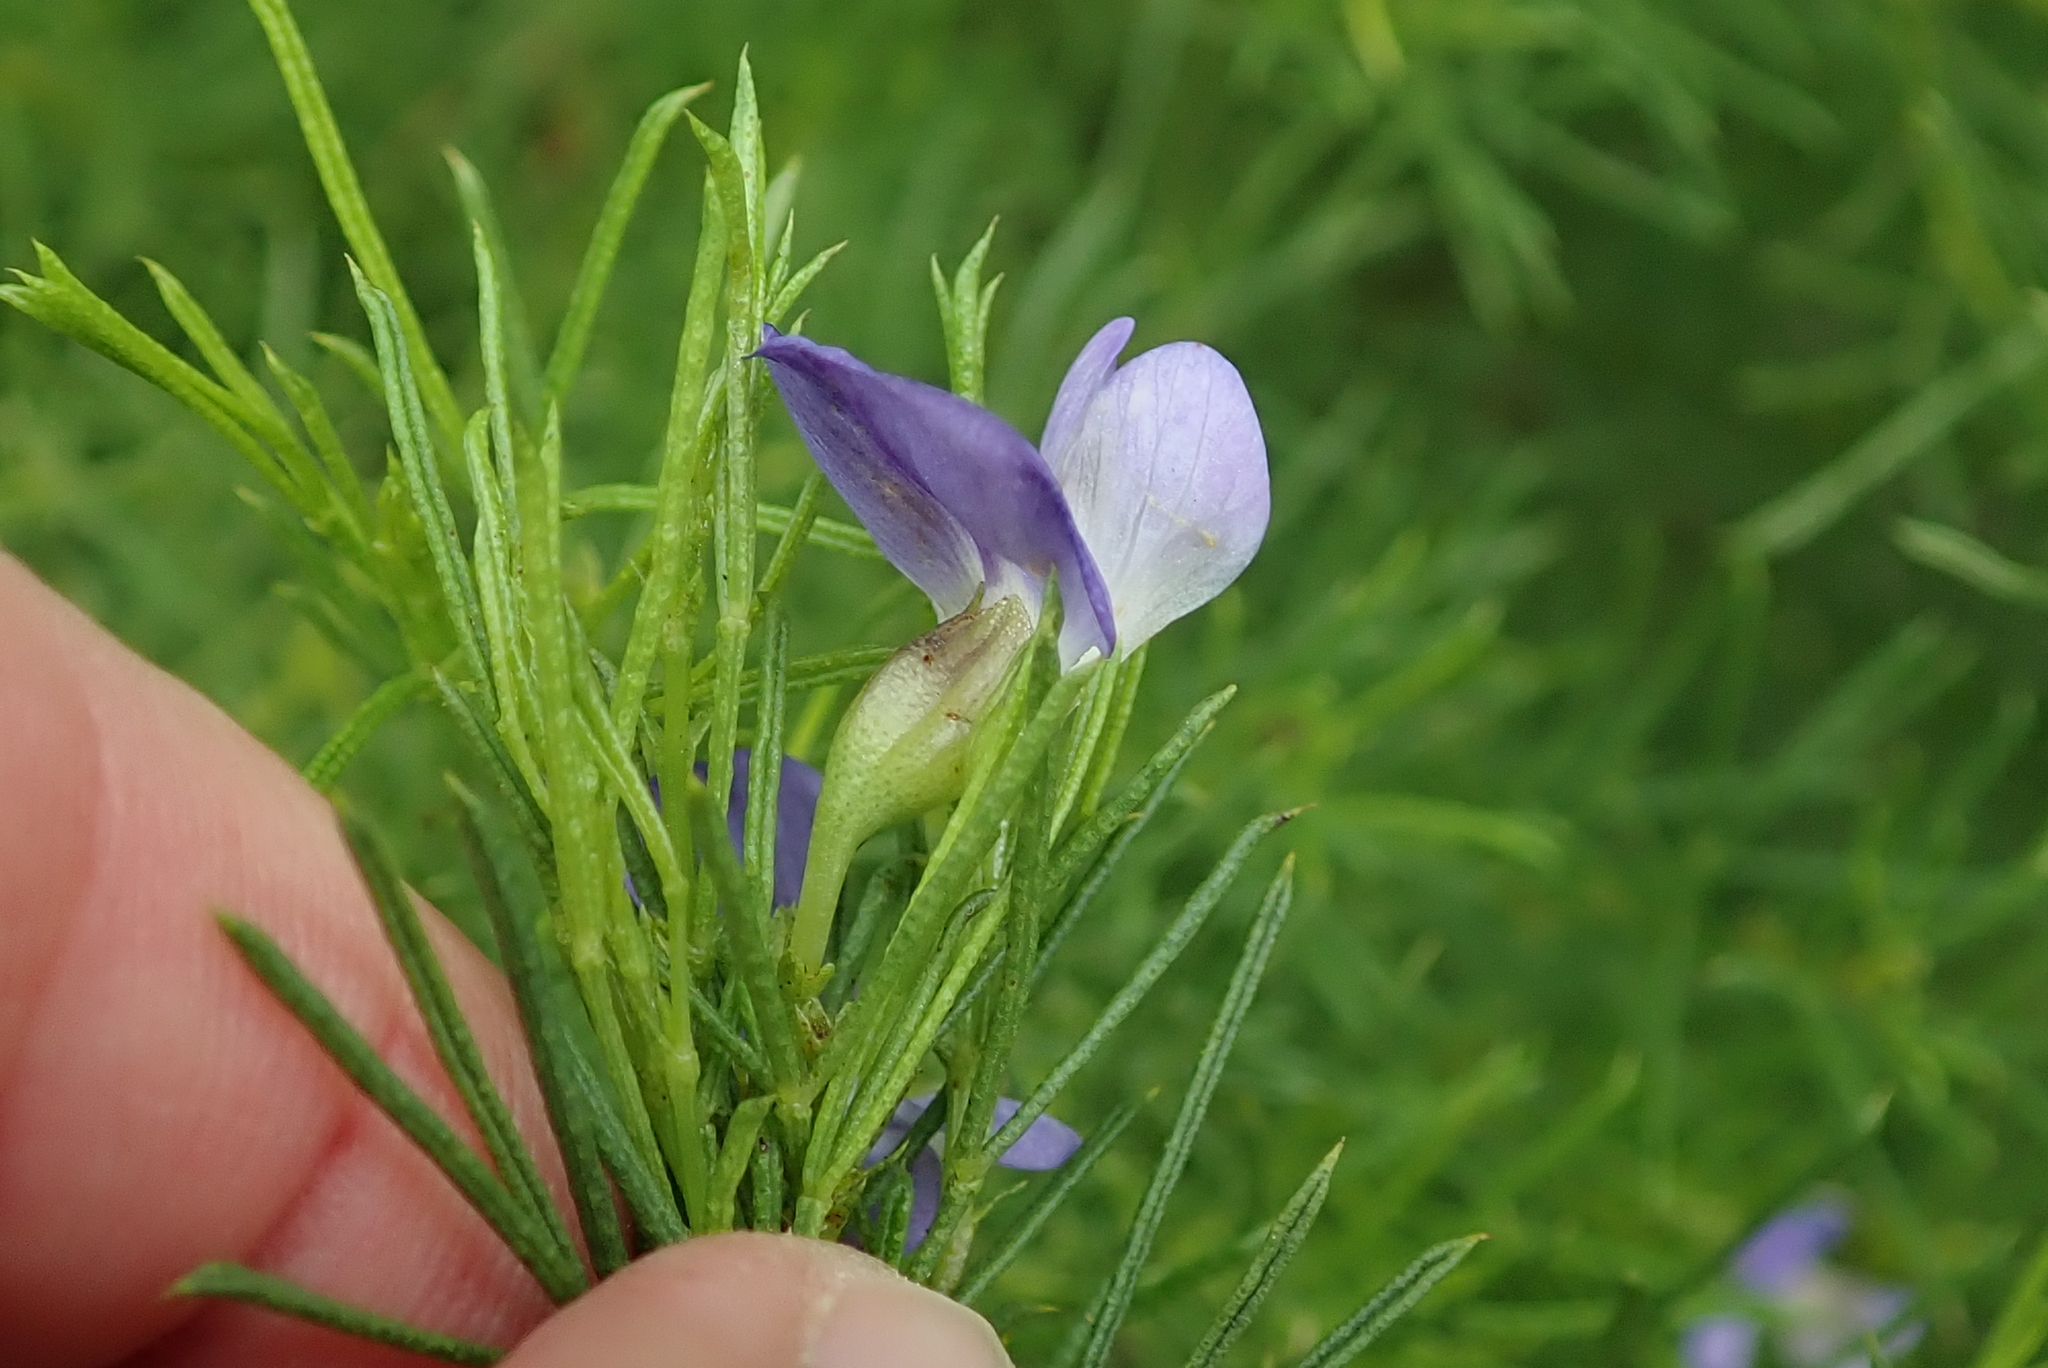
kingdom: Plantae
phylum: Tracheophyta
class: Magnoliopsida
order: Fabales
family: Fabaceae
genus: Psoralea
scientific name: Psoralea laevigata
